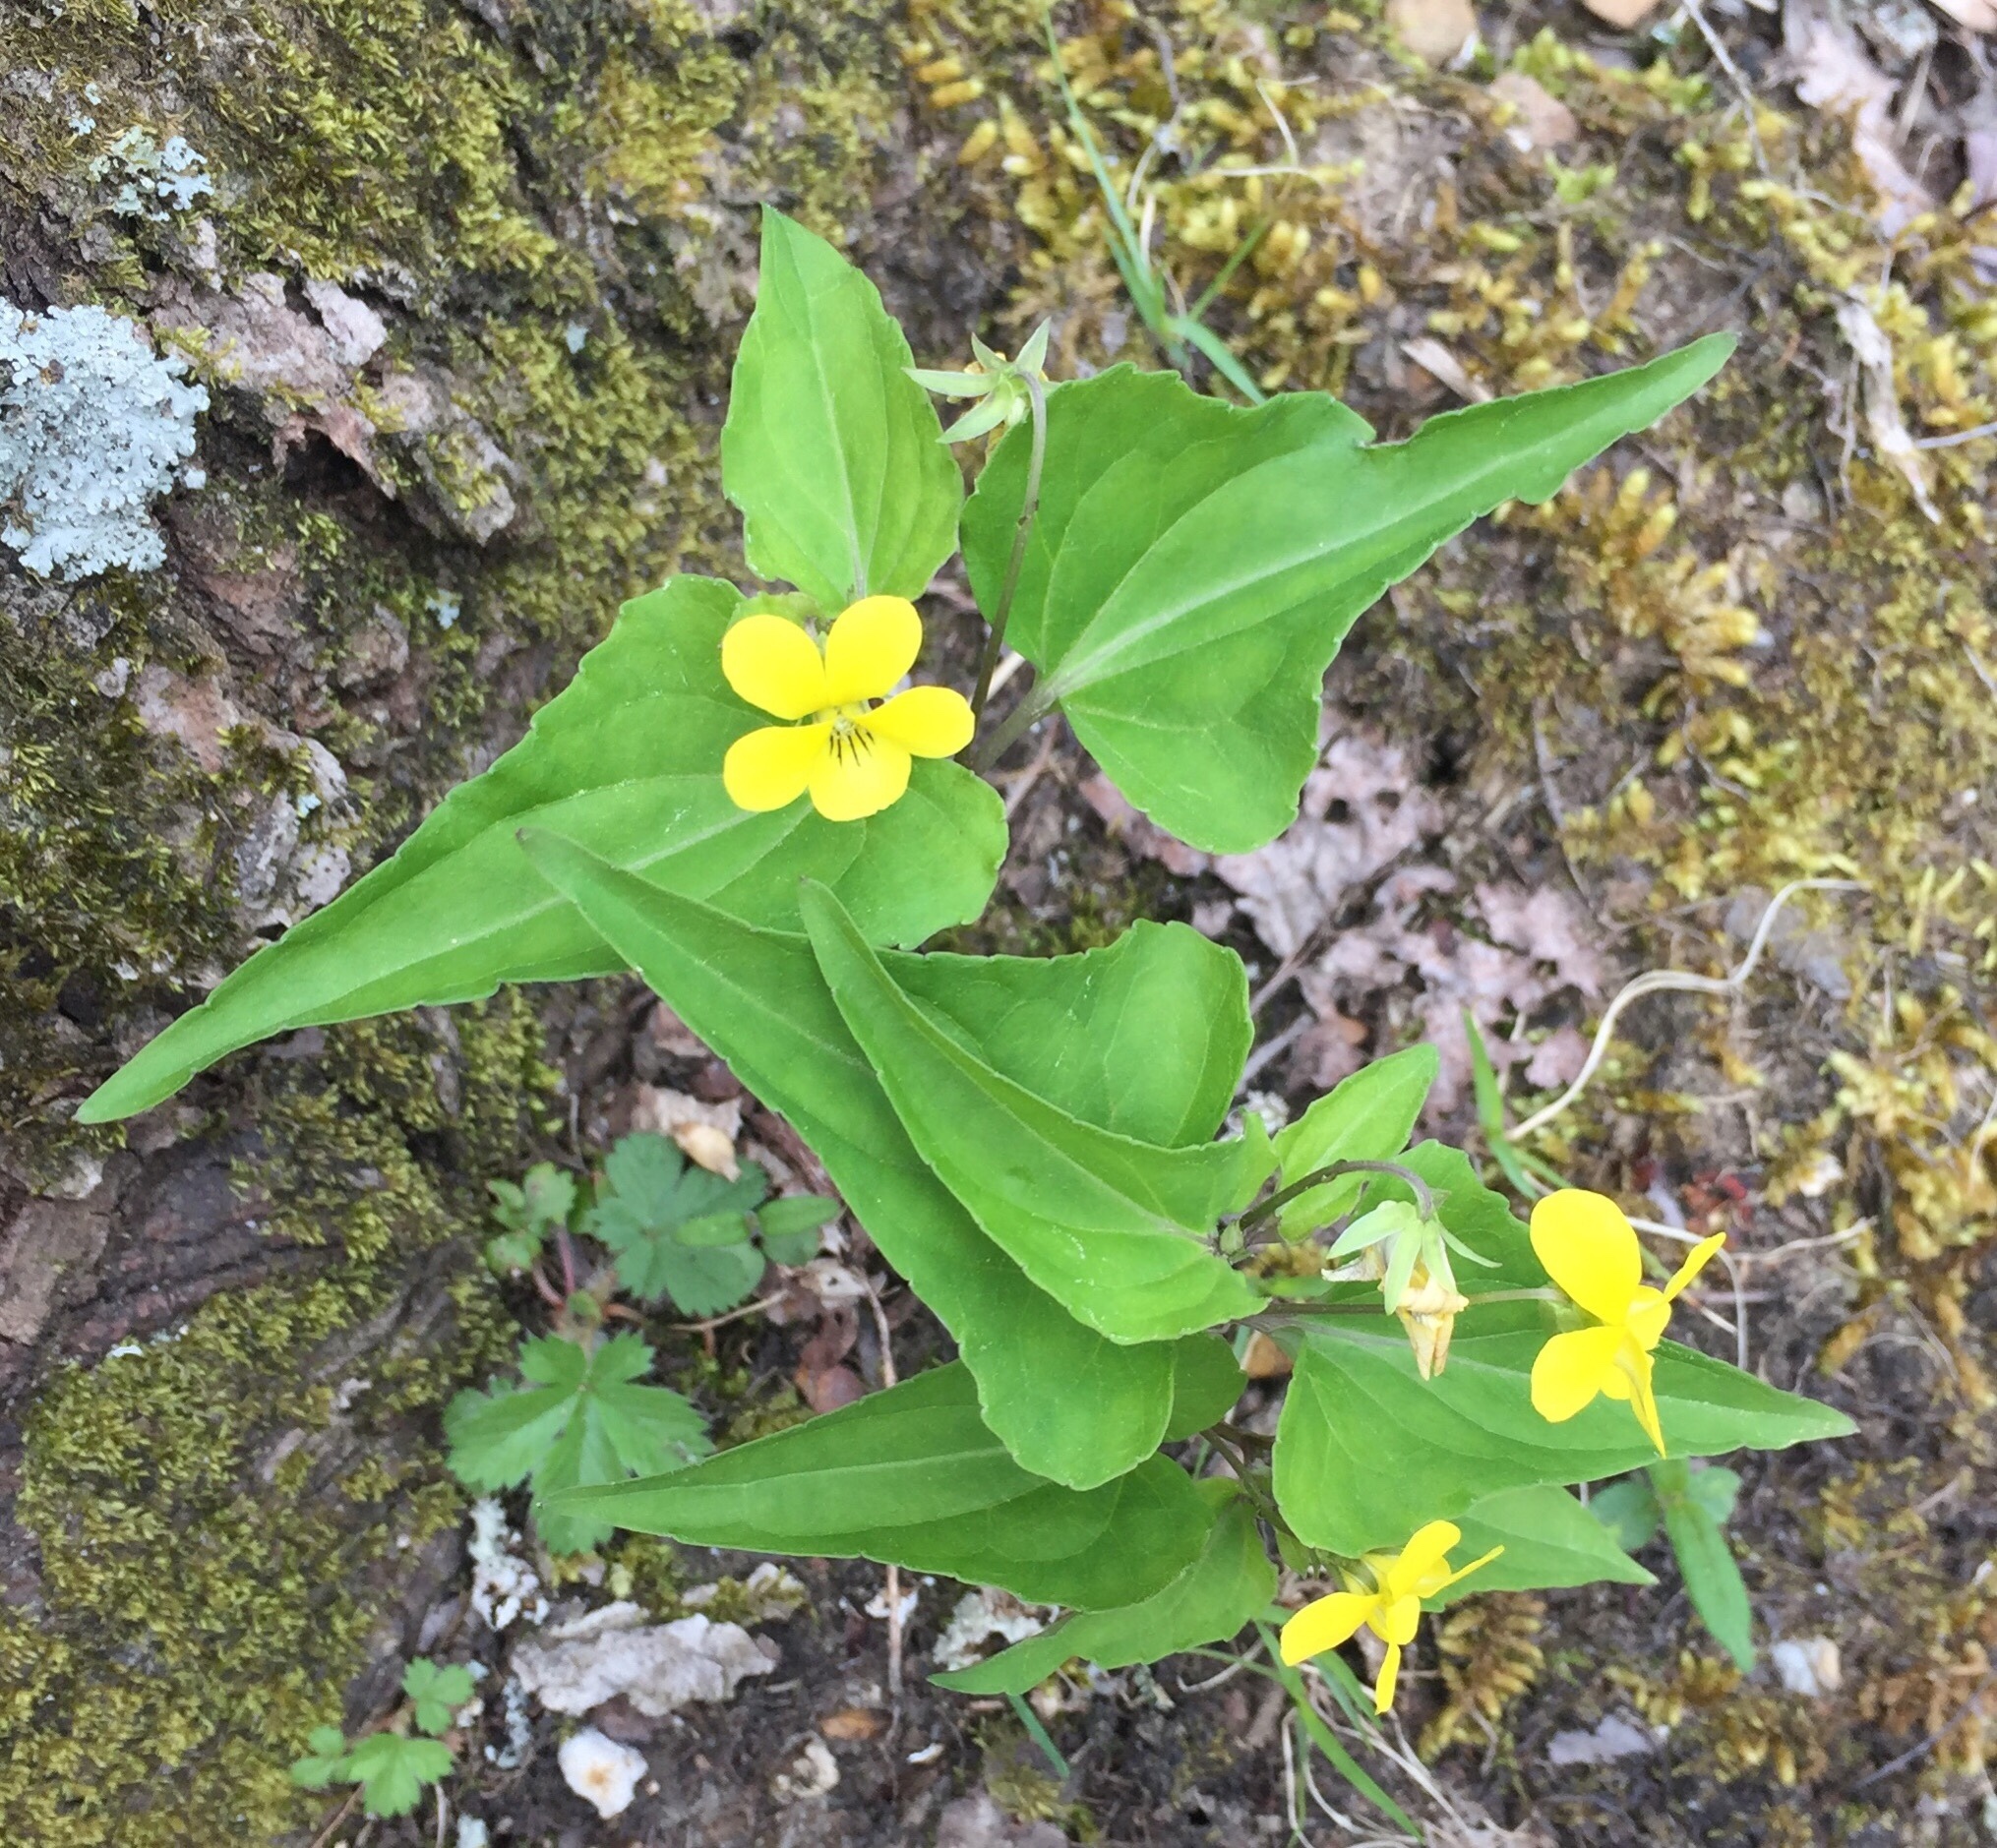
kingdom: Plantae
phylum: Tracheophyta
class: Magnoliopsida
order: Malpighiales
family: Violaceae
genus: Viola
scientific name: Viola hastata
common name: Spear-leaf violet
